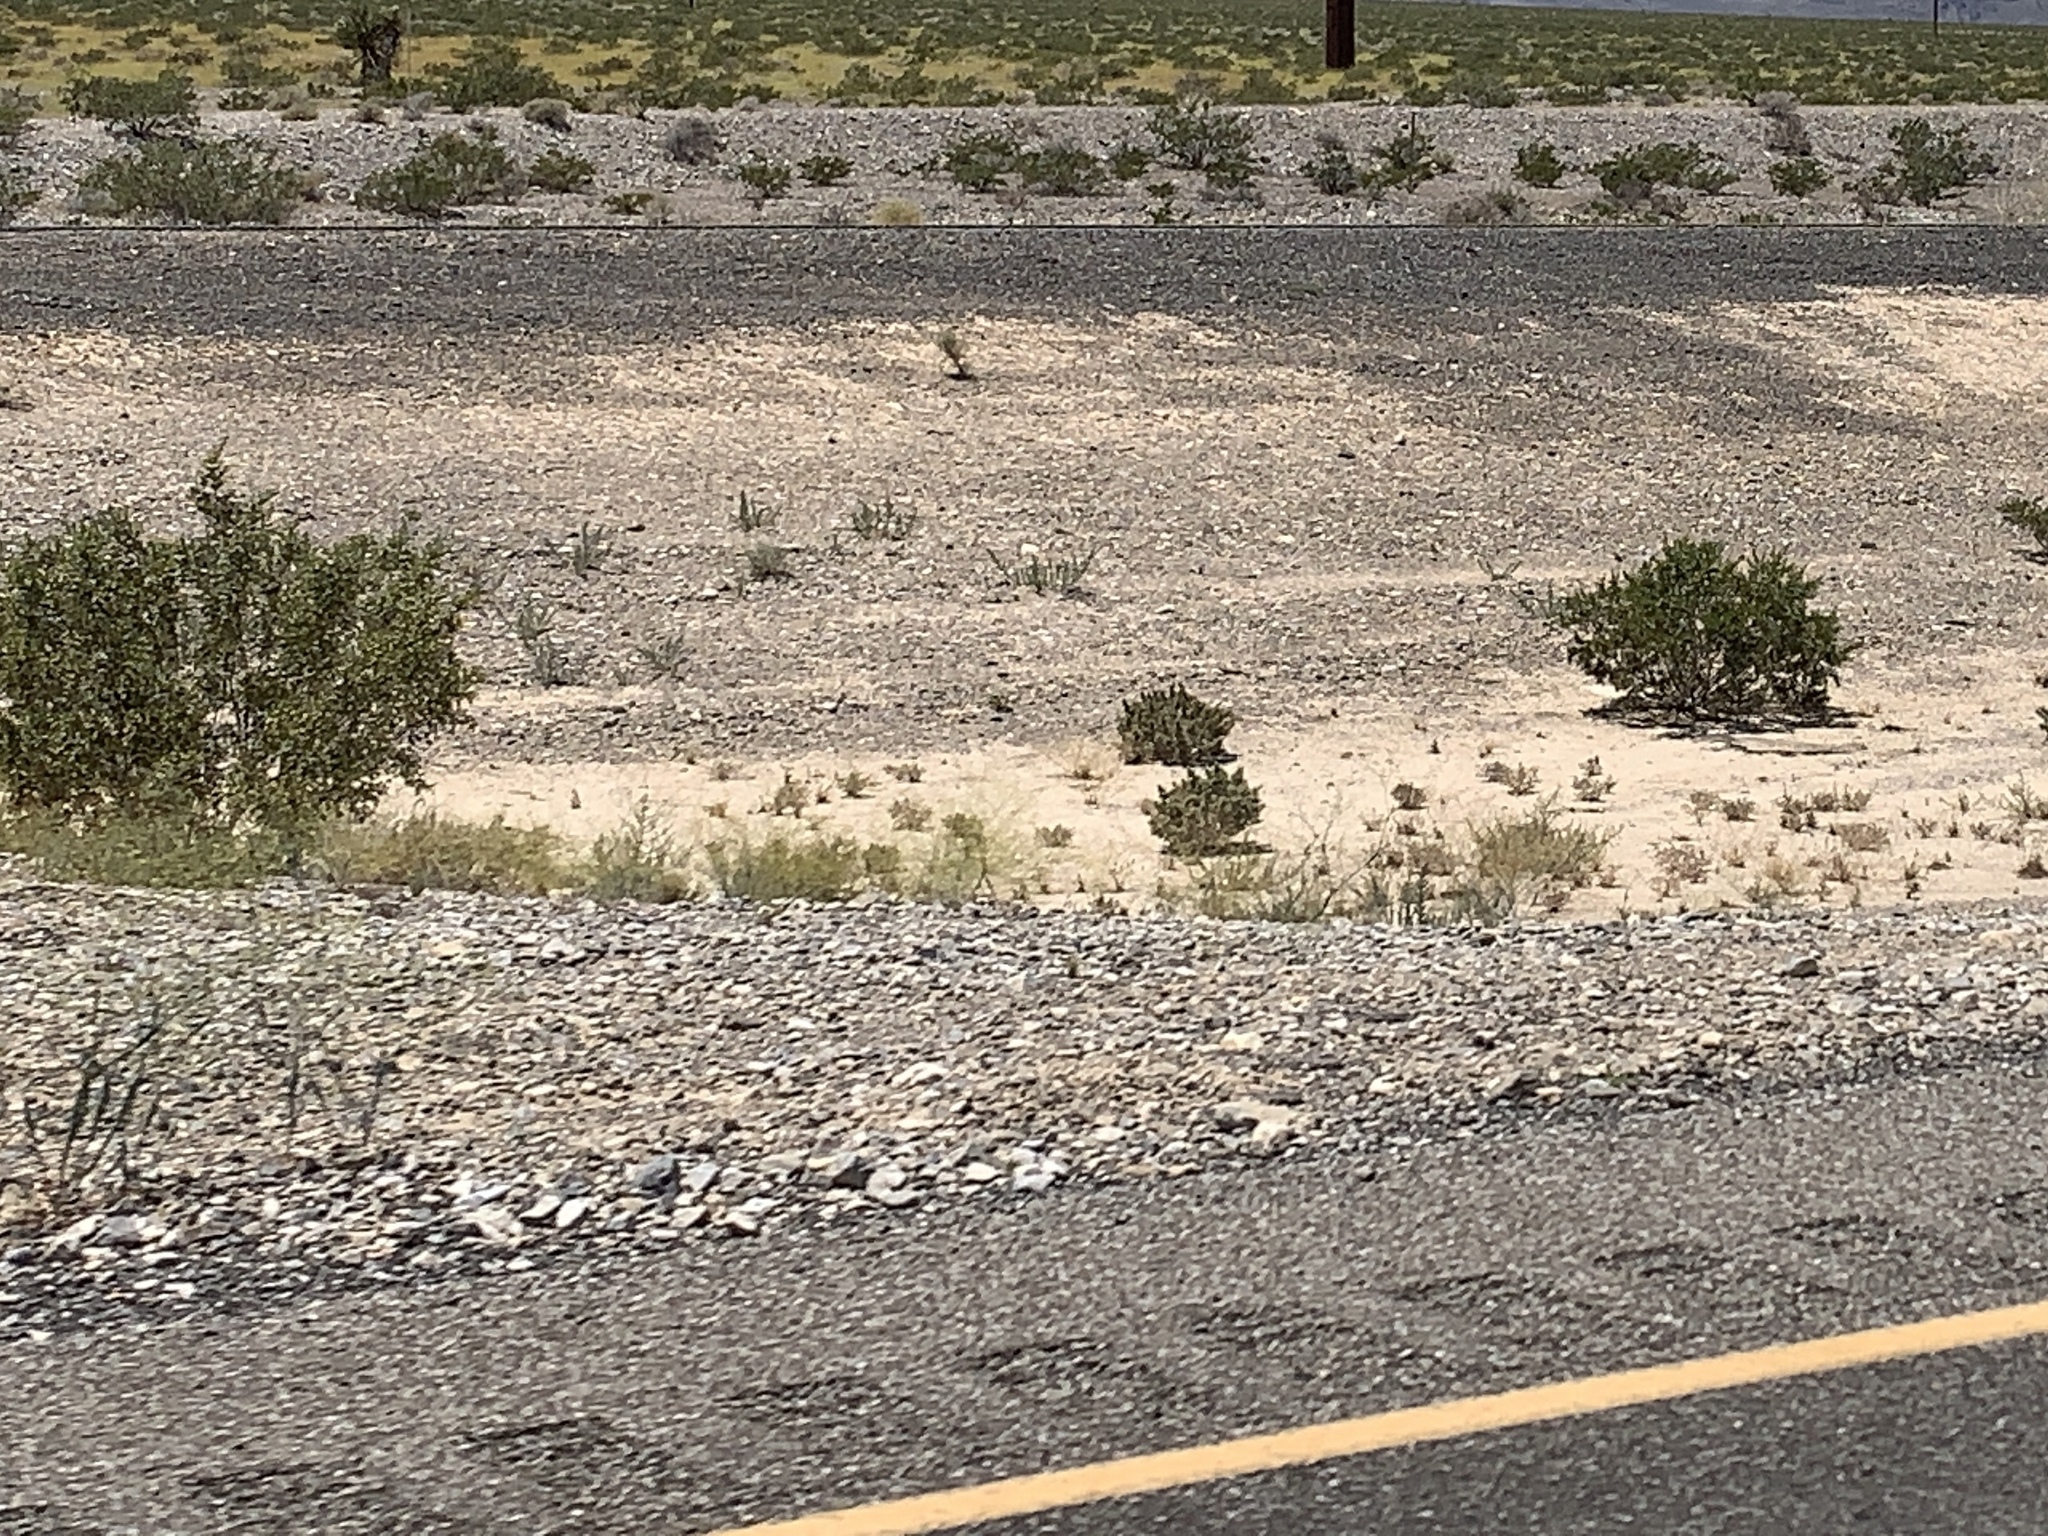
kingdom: Plantae
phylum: Tracheophyta
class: Magnoliopsida
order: Zygophyllales
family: Zygophyllaceae
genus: Larrea
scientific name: Larrea tridentata
